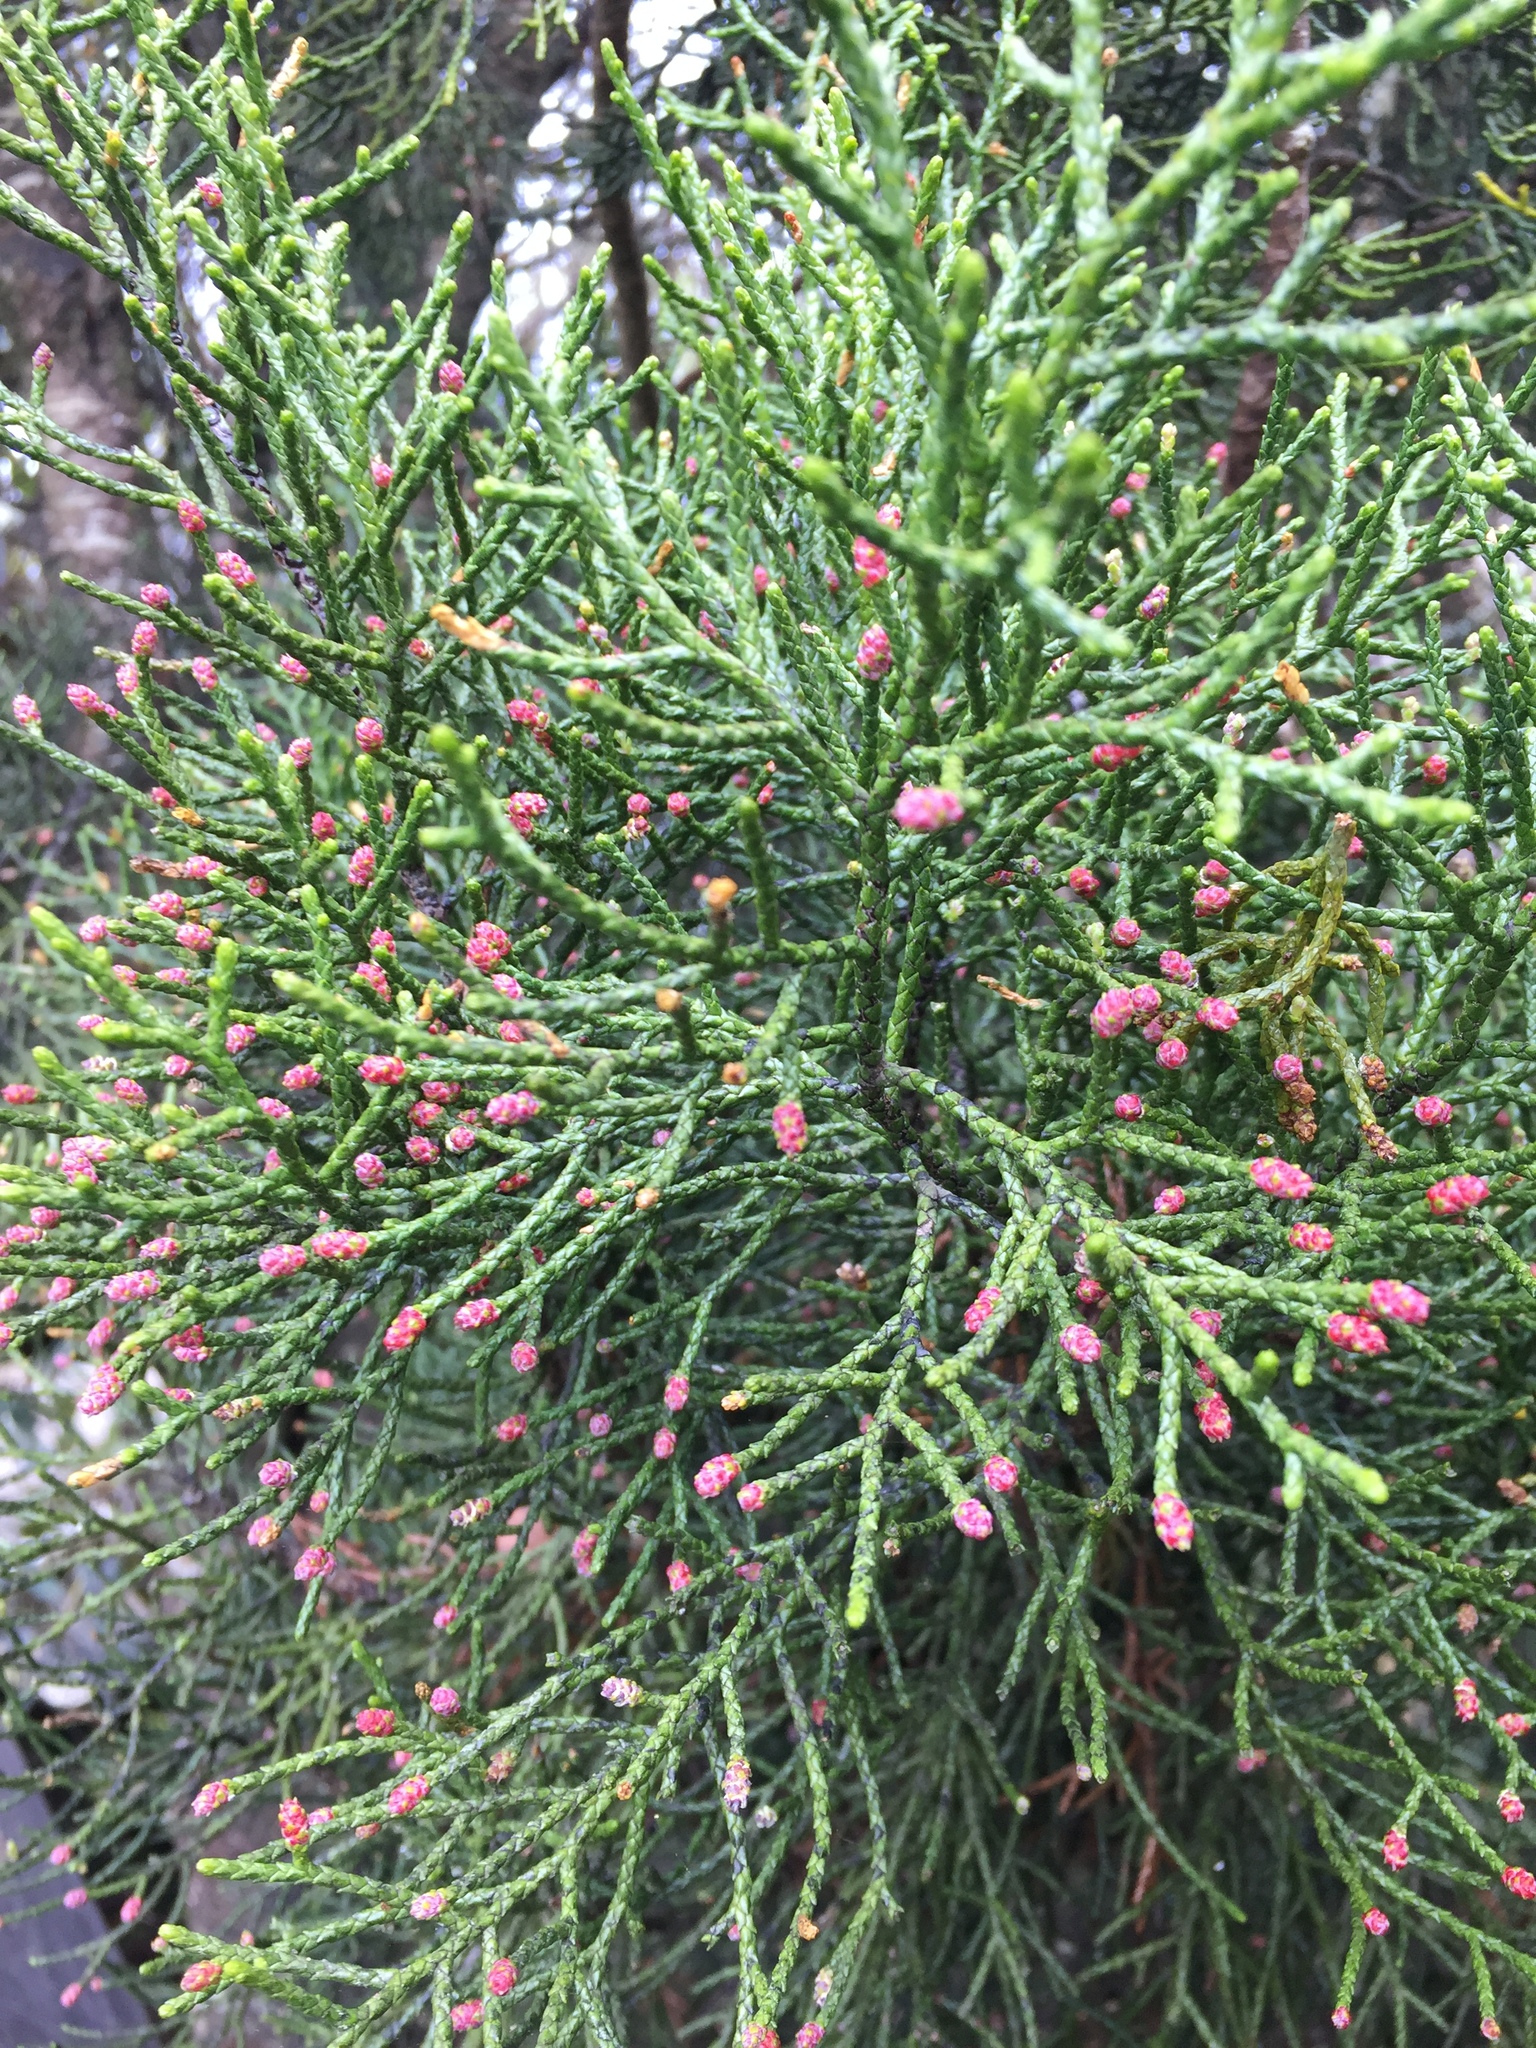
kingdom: Plantae
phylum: Tracheophyta
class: Pinopsida
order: Pinales
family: Podocarpaceae
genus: Manoao
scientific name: Manoao colensoi
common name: Silver pine
